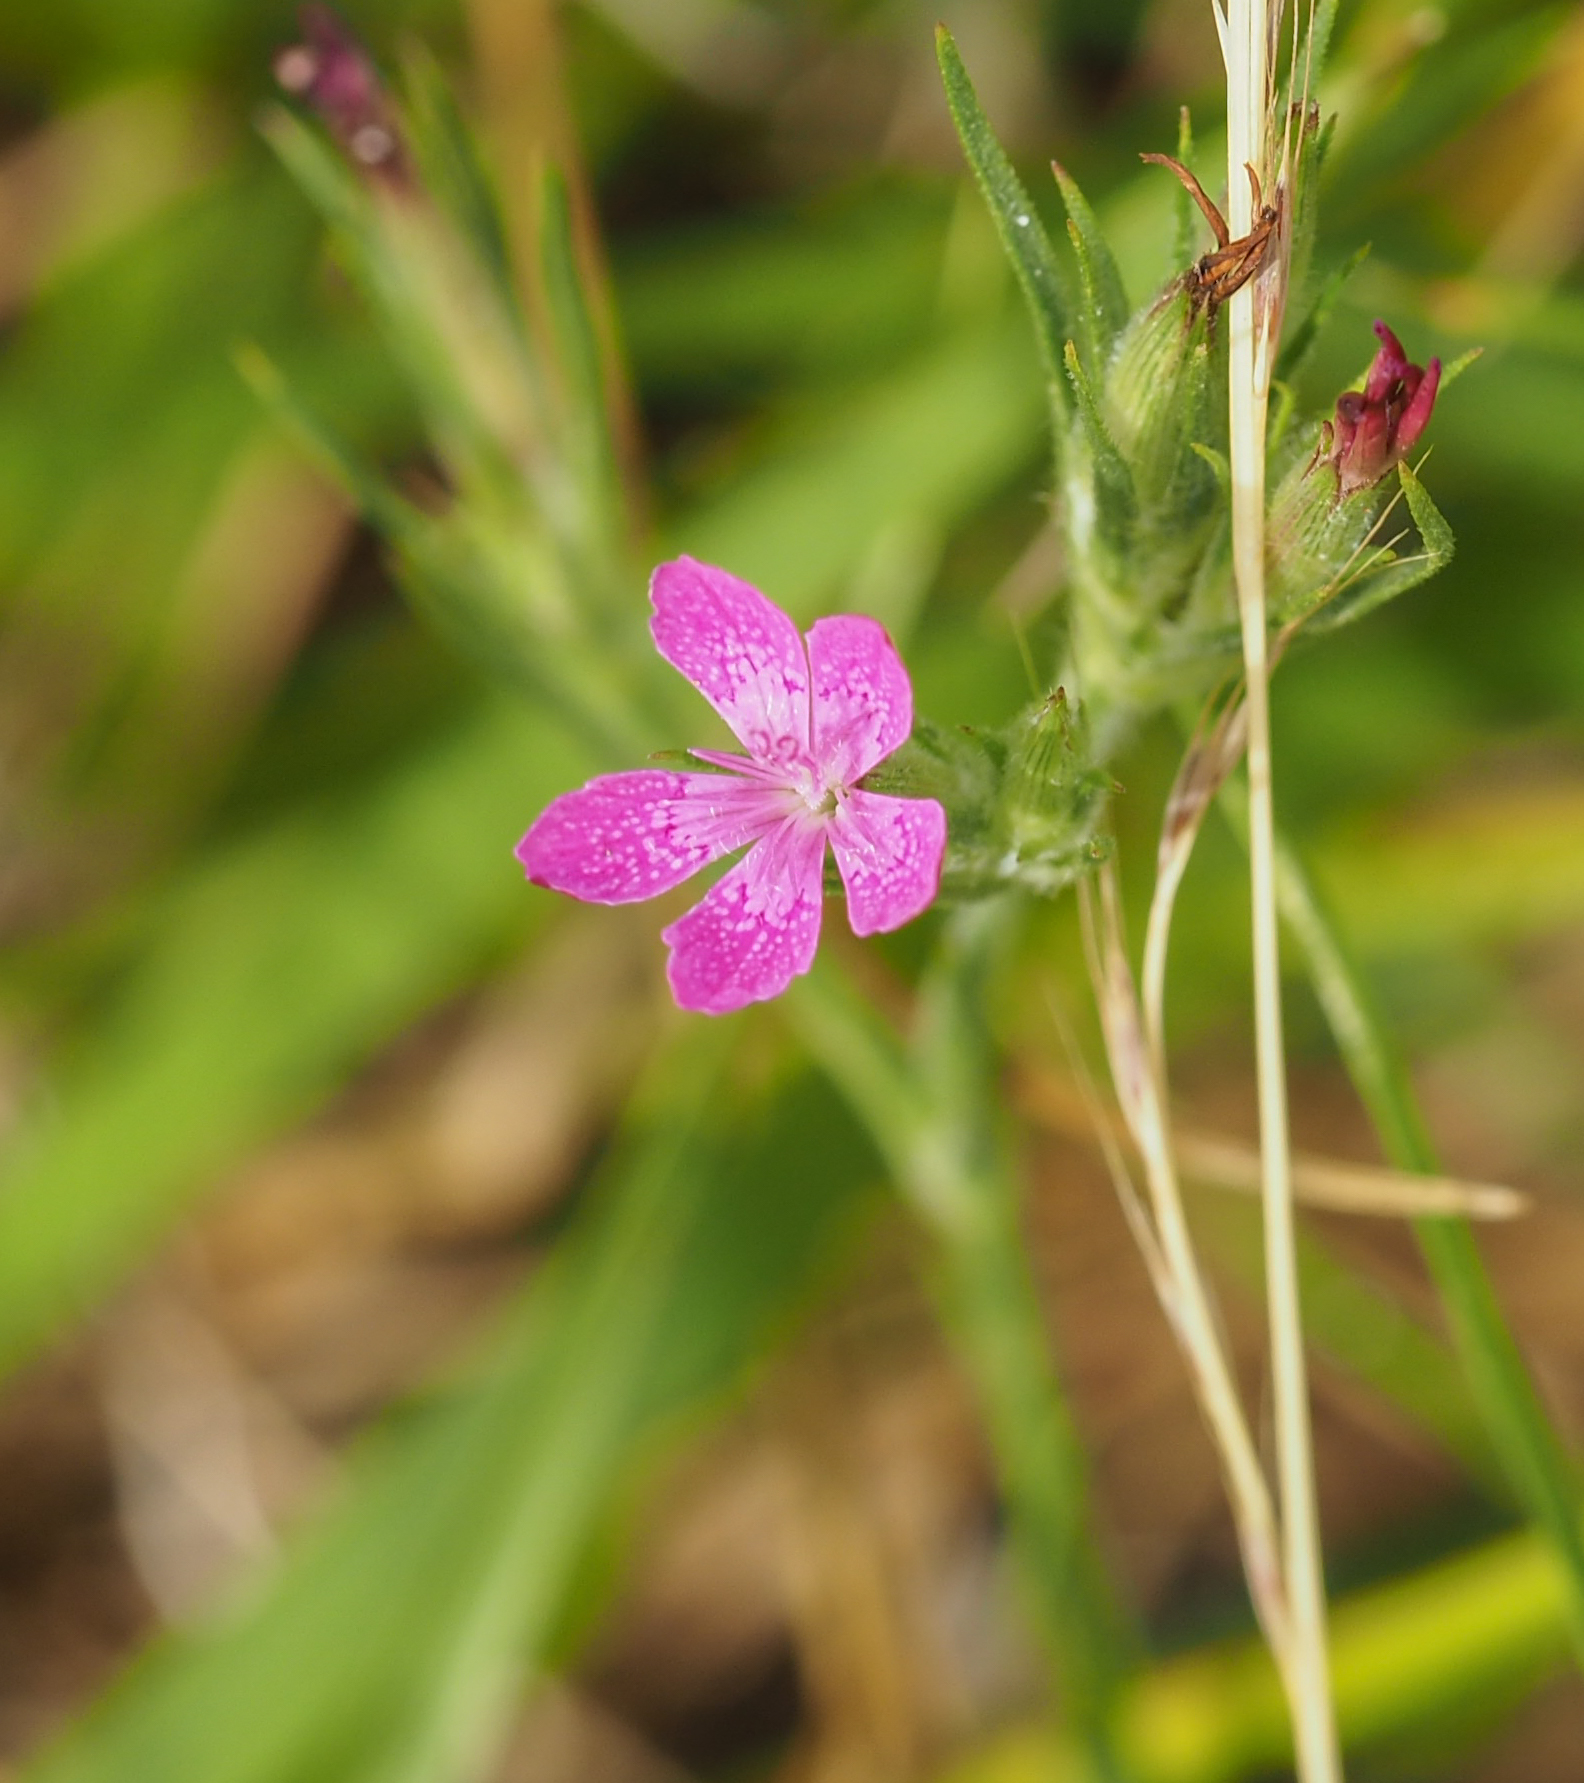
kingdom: Plantae
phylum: Tracheophyta
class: Magnoliopsida
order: Caryophyllales
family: Caryophyllaceae
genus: Dianthus
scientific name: Dianthus armeria
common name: Deptford pink
